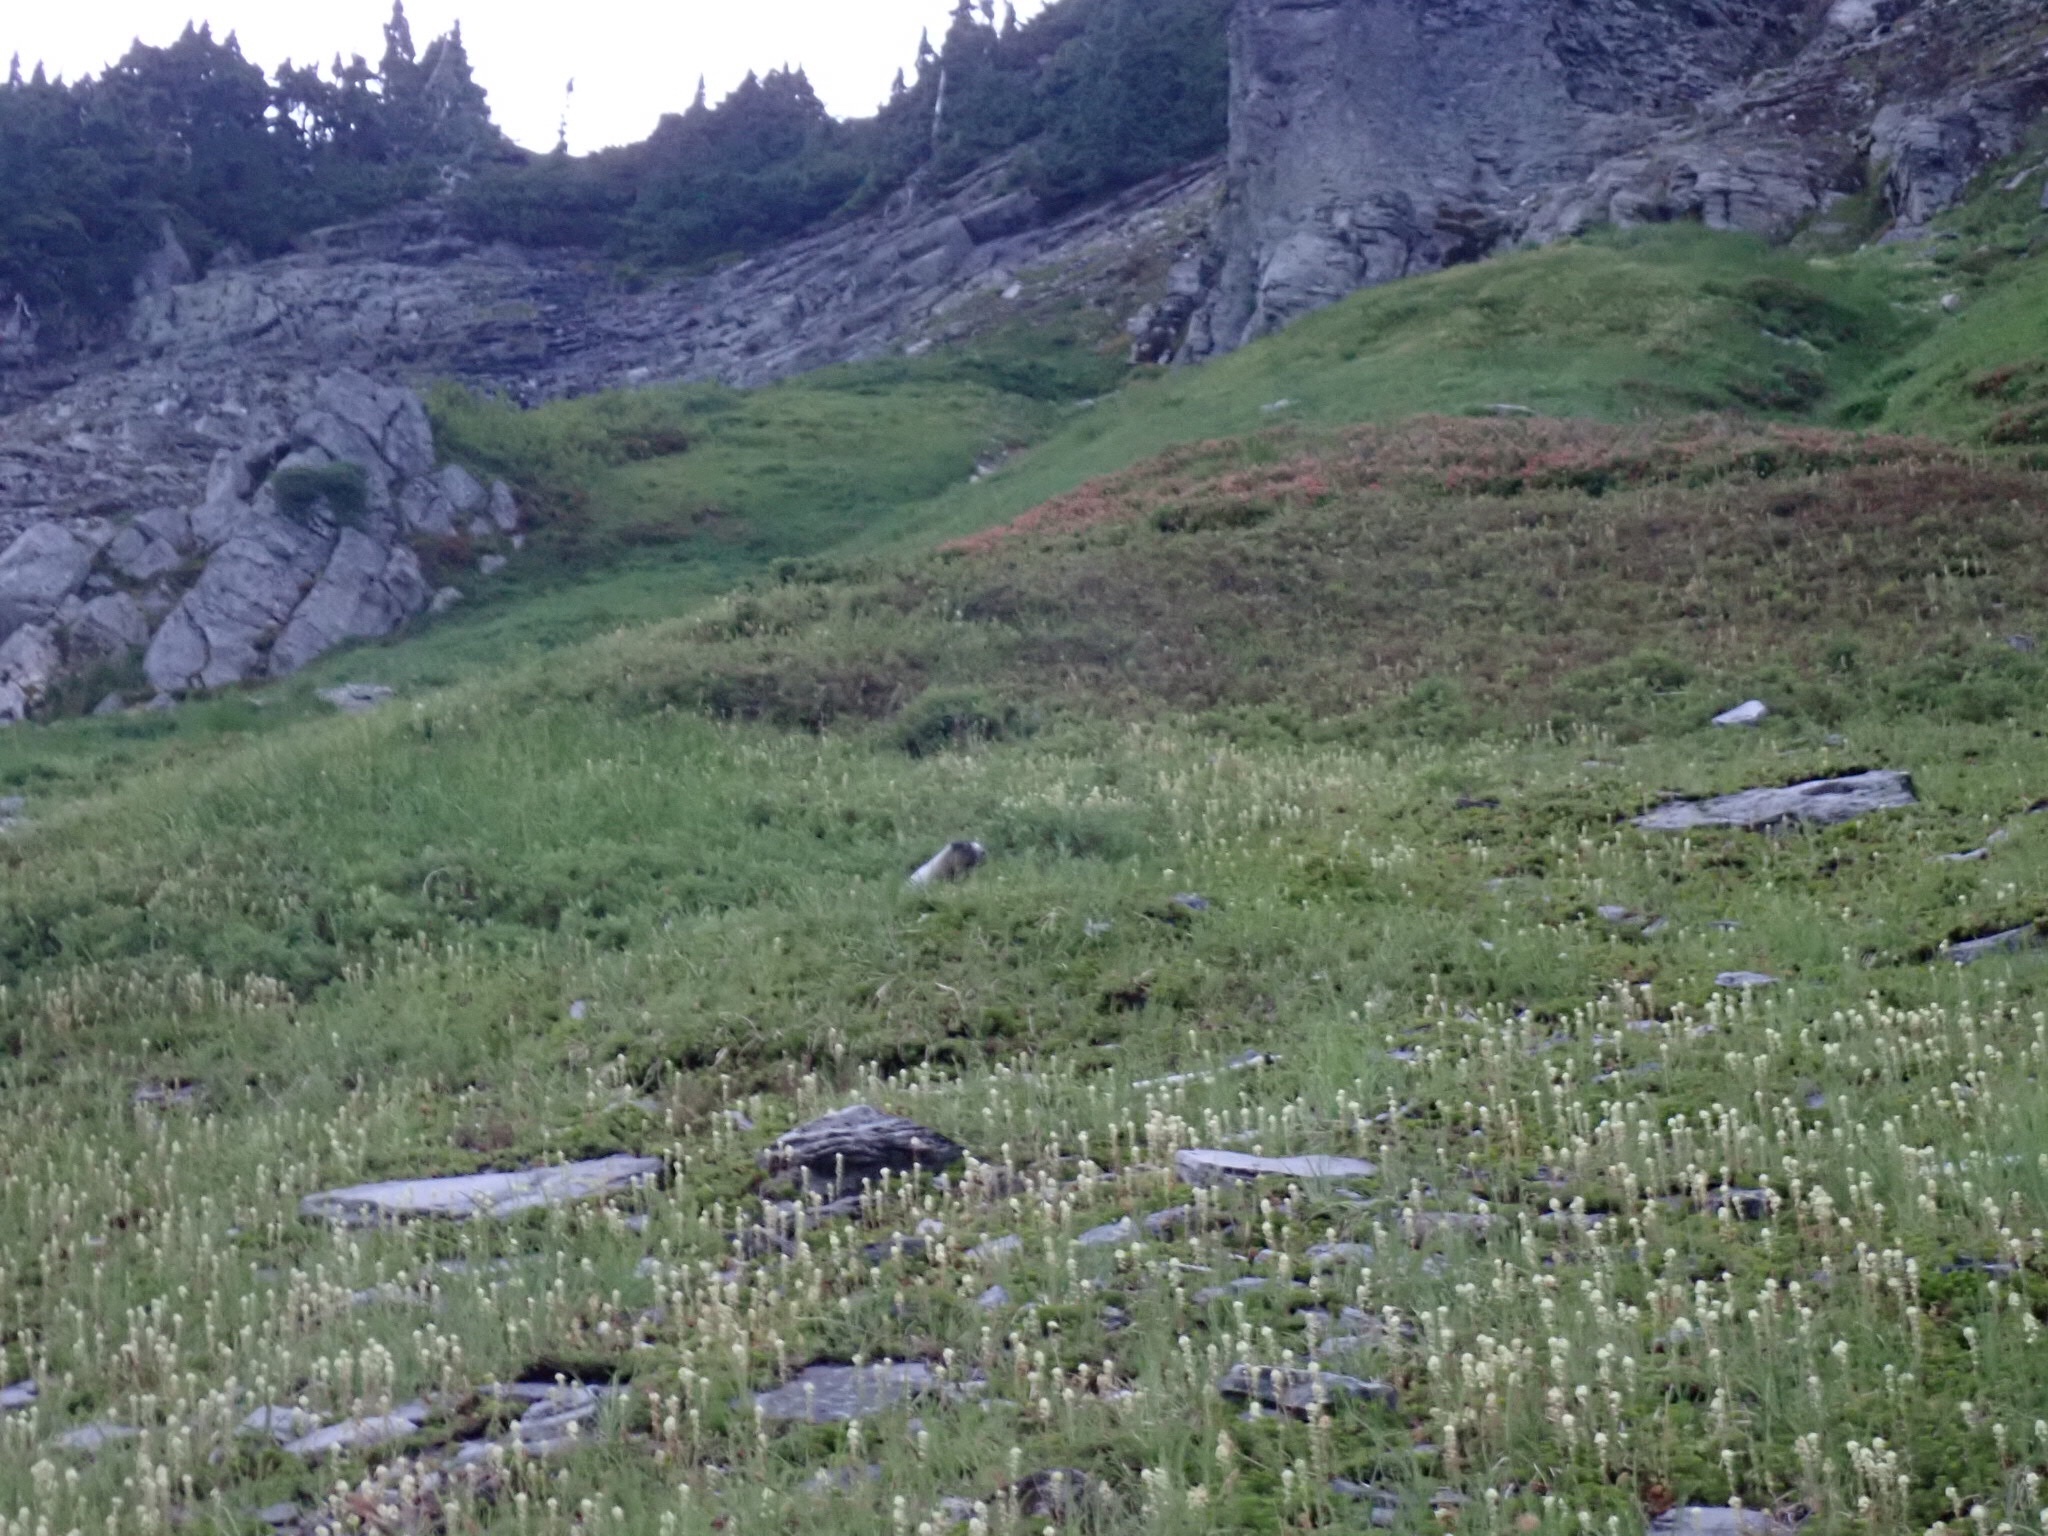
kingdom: Animalia
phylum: Chordata
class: Mammalia
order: Rodentia
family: Sciuridae
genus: Marmota
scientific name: Marmota caligata
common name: Hoary marmot
